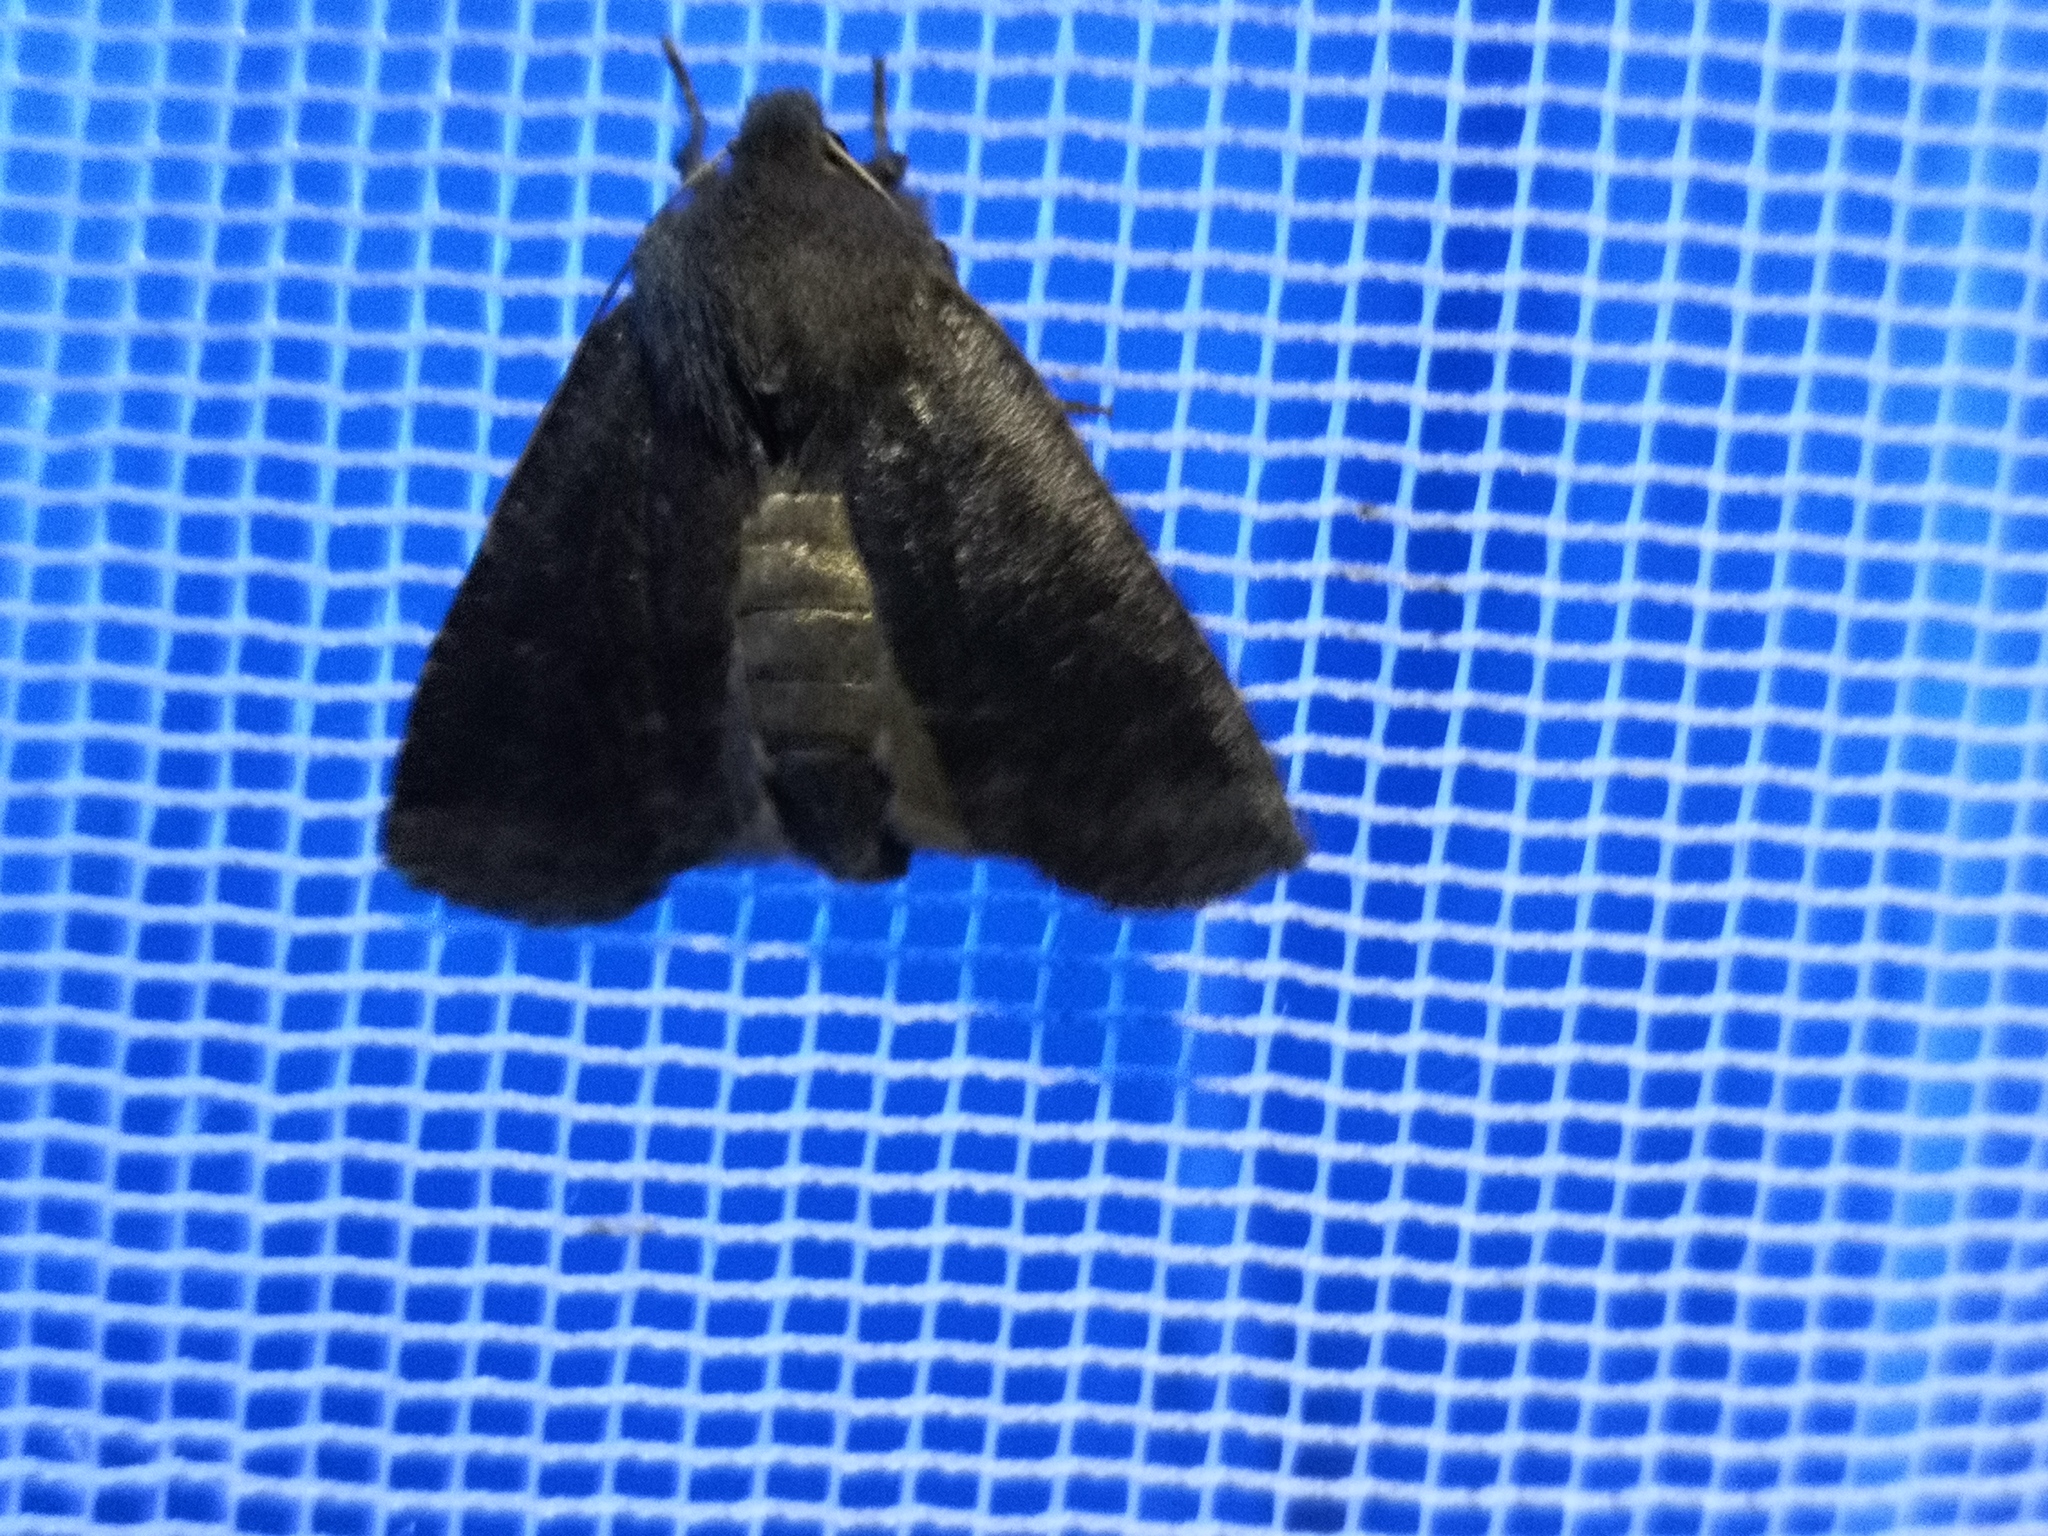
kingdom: Animalia
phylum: Arthropoda
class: Insecta
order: Lepidoptera
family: Noctuidae
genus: Conistra
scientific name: Conistra ligula
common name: Dark chestnut
